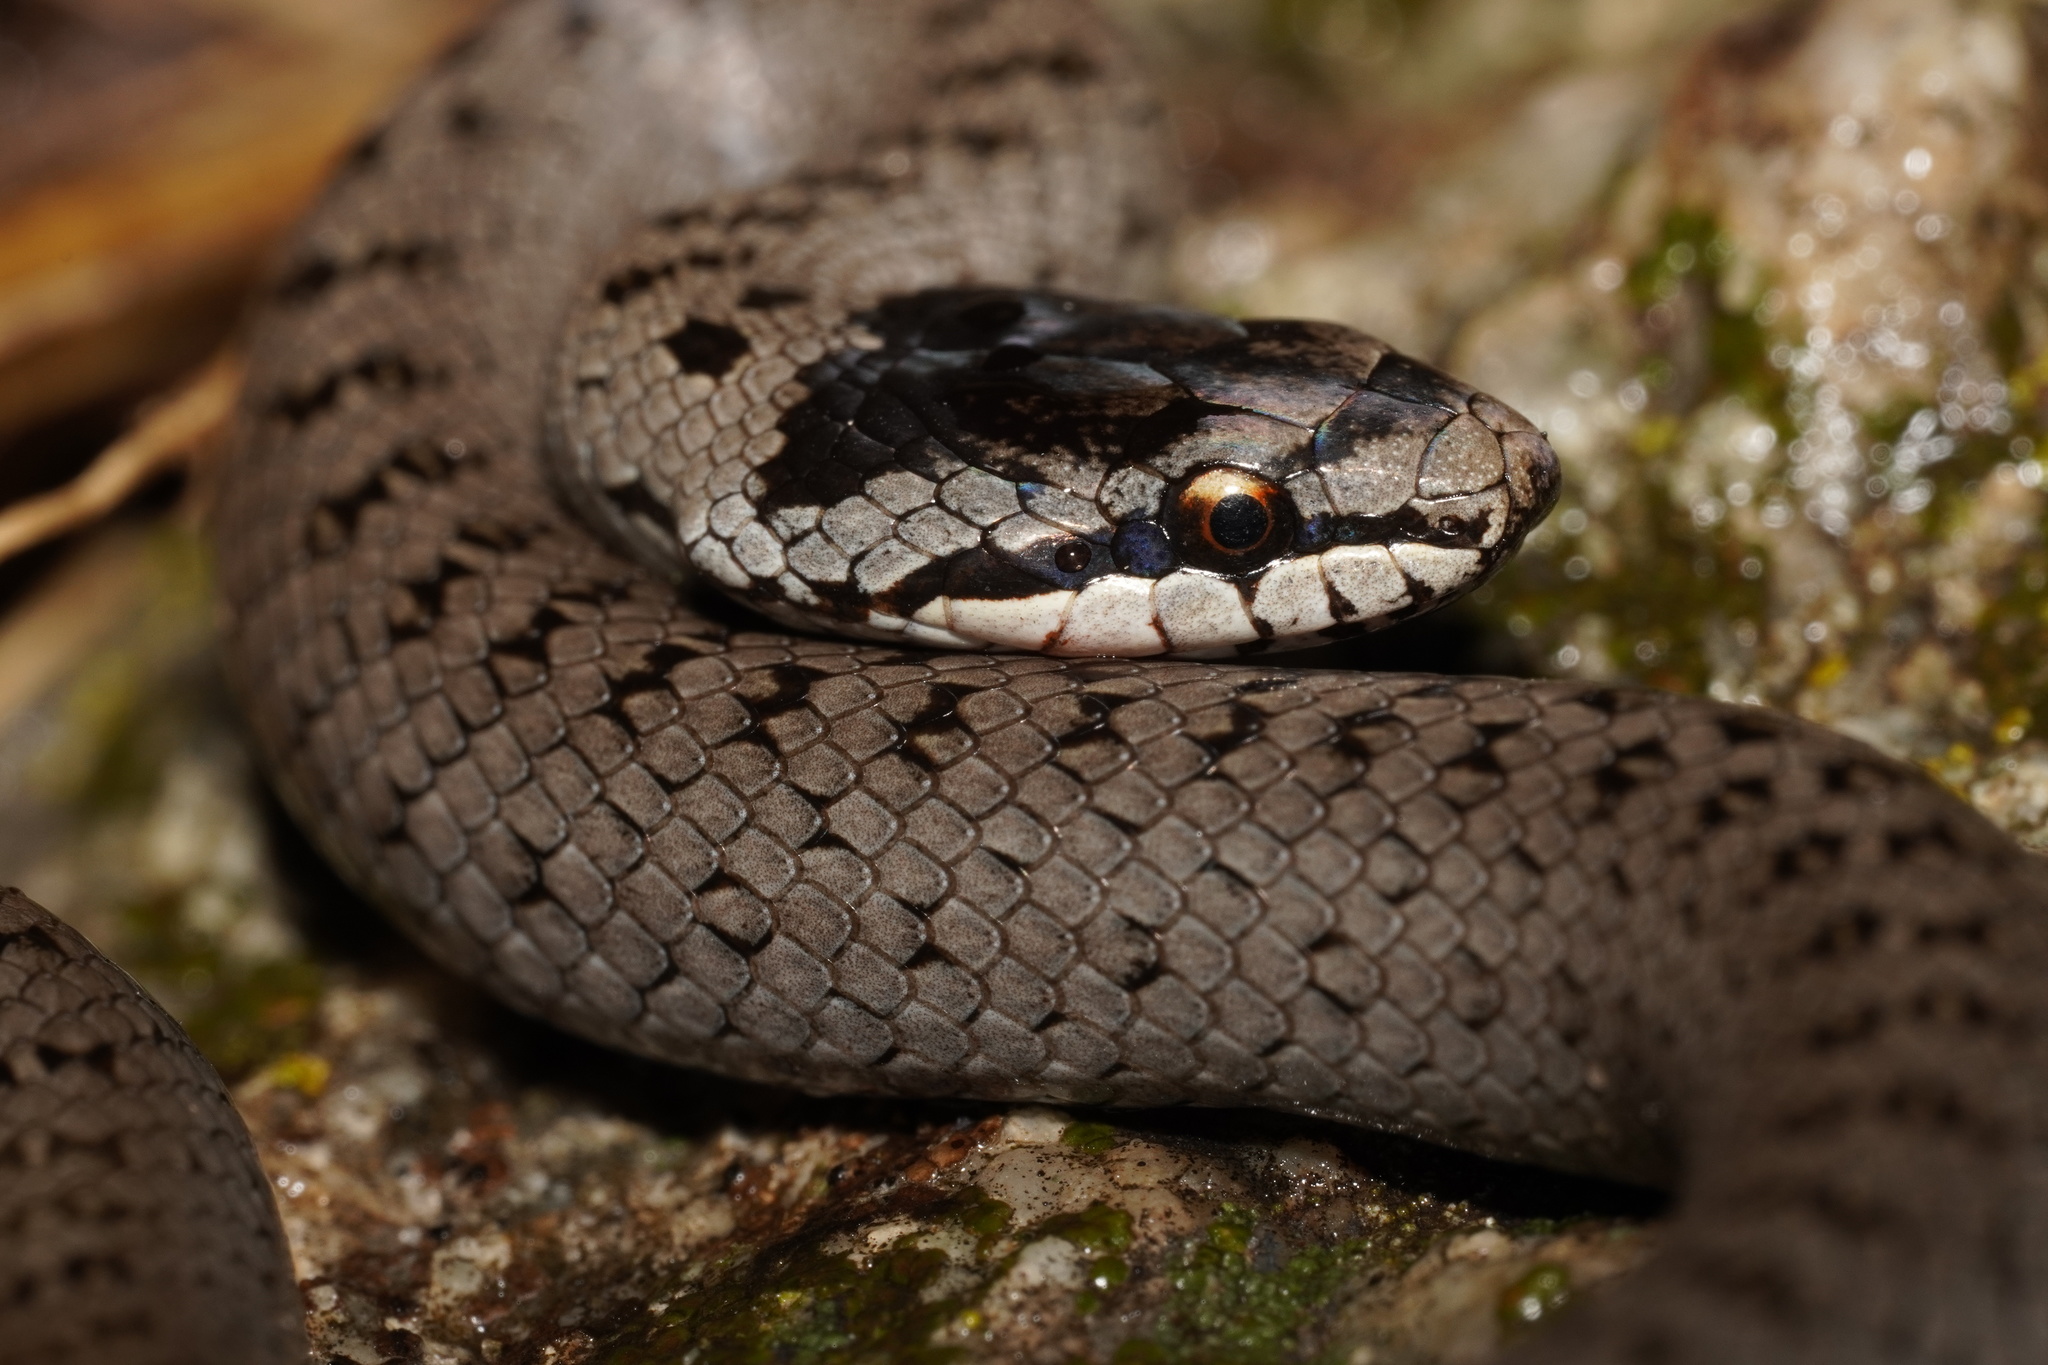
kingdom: Animalia
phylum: Chordata
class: Squamata
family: Colubridae
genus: Coronella
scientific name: Coronella austriaca
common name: Smooth snake
